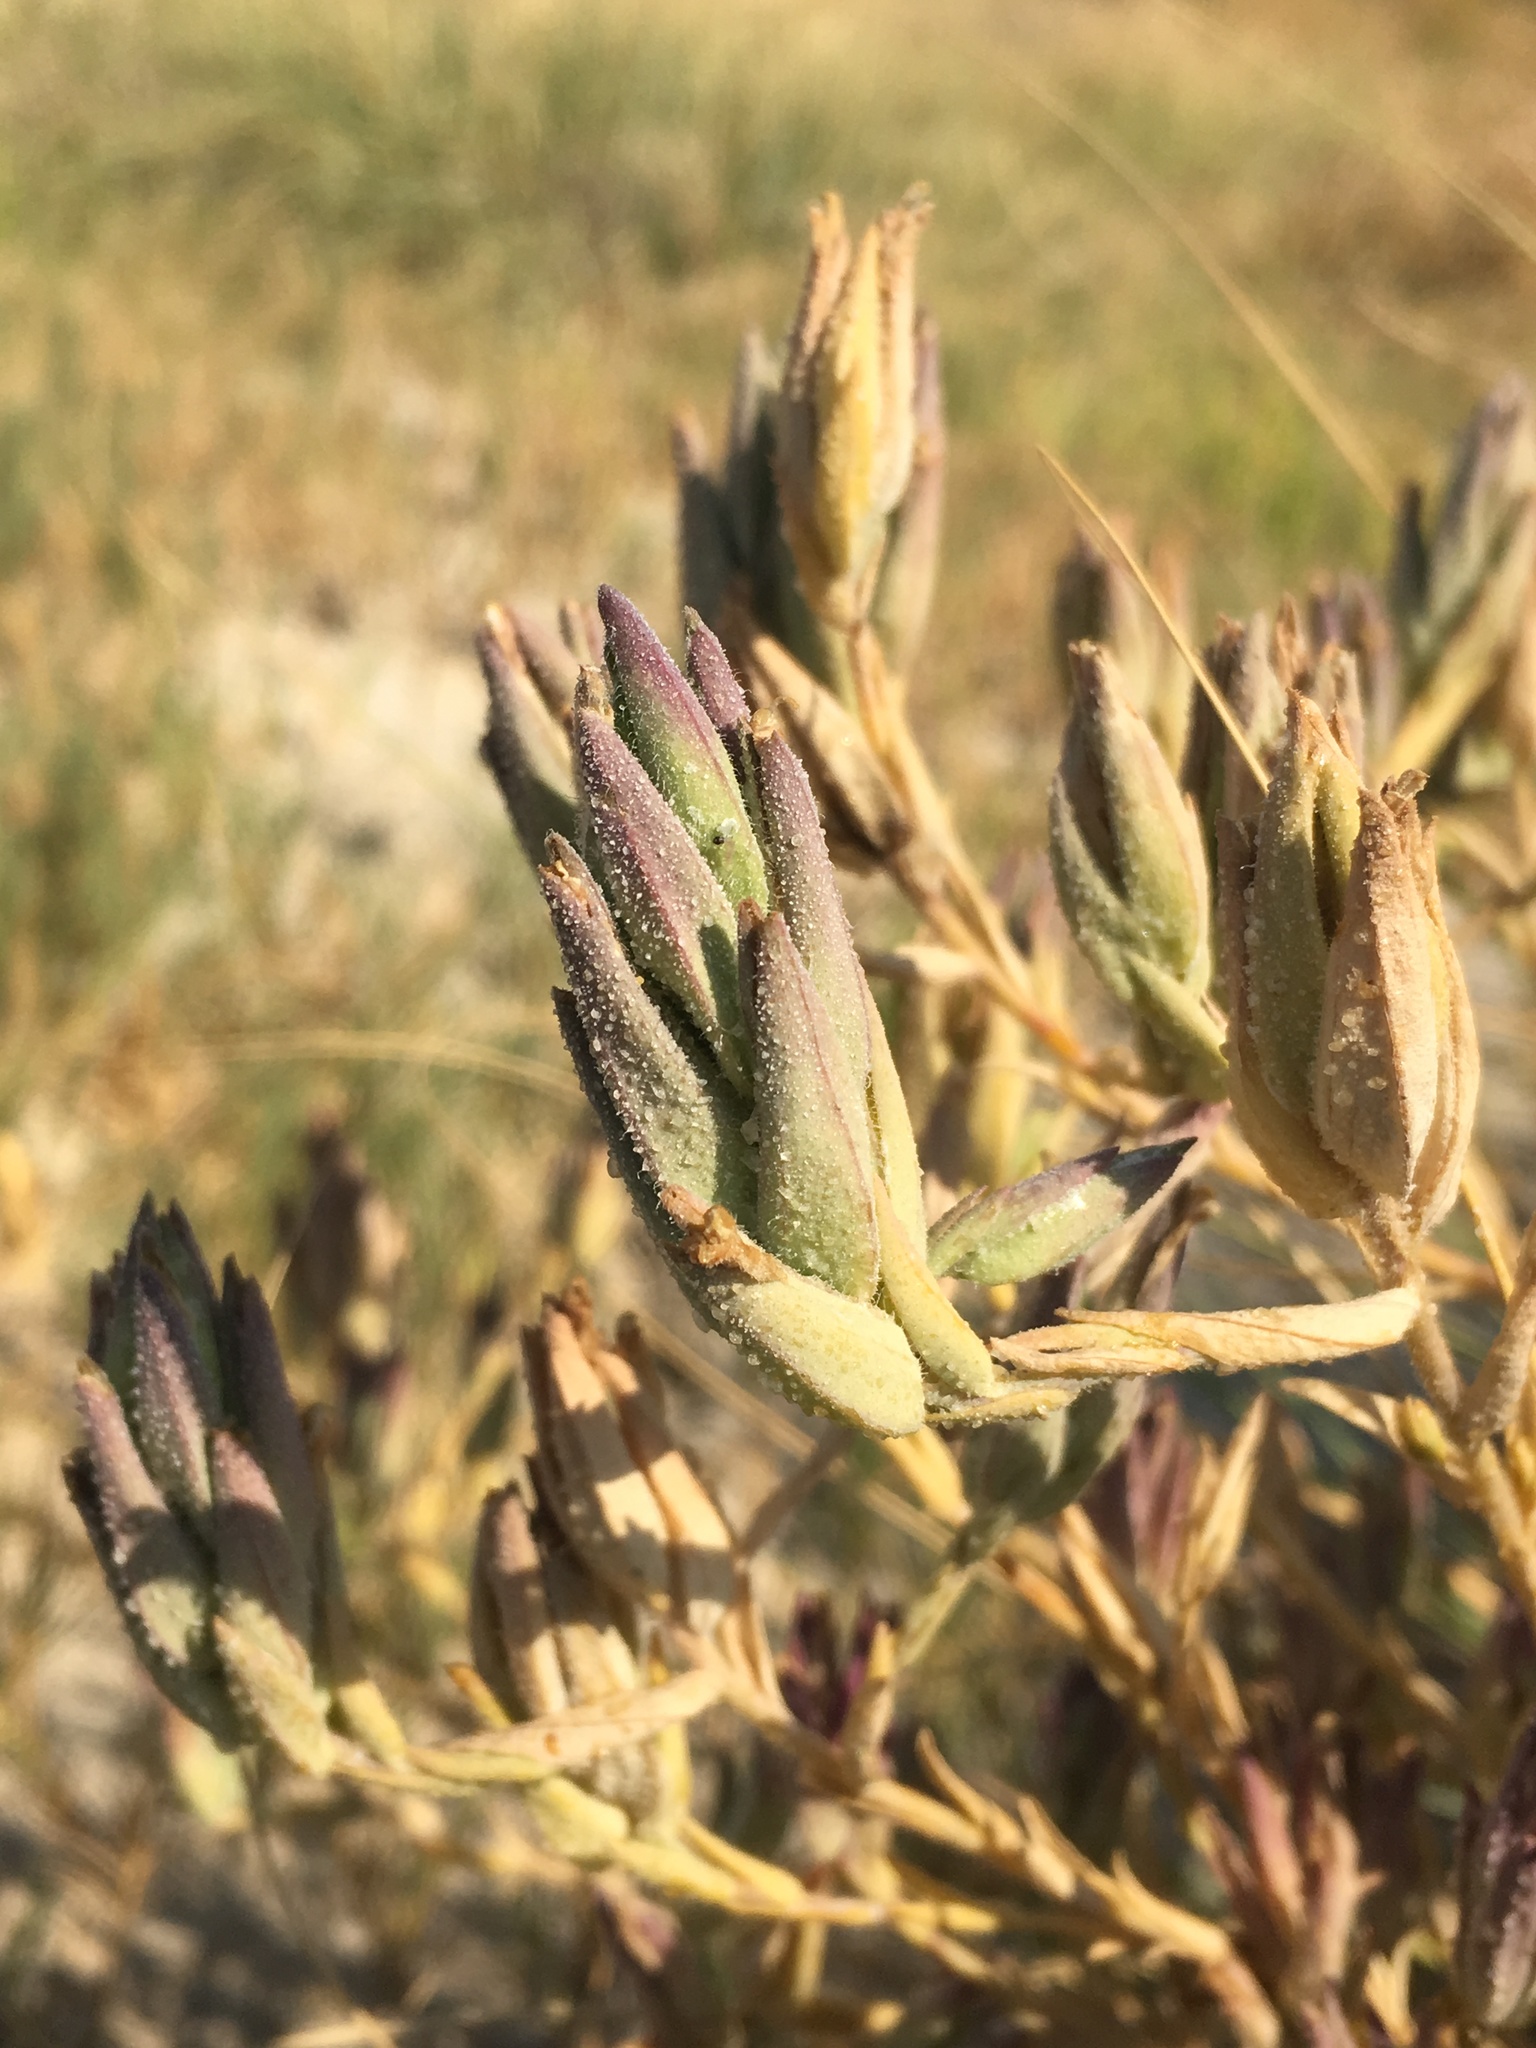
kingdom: Plantae
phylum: Tracheophyta
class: Magnoliopsida
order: Lamiales
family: Orobanchaceae
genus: Chloropyron
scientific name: Chloropyron maritimum
